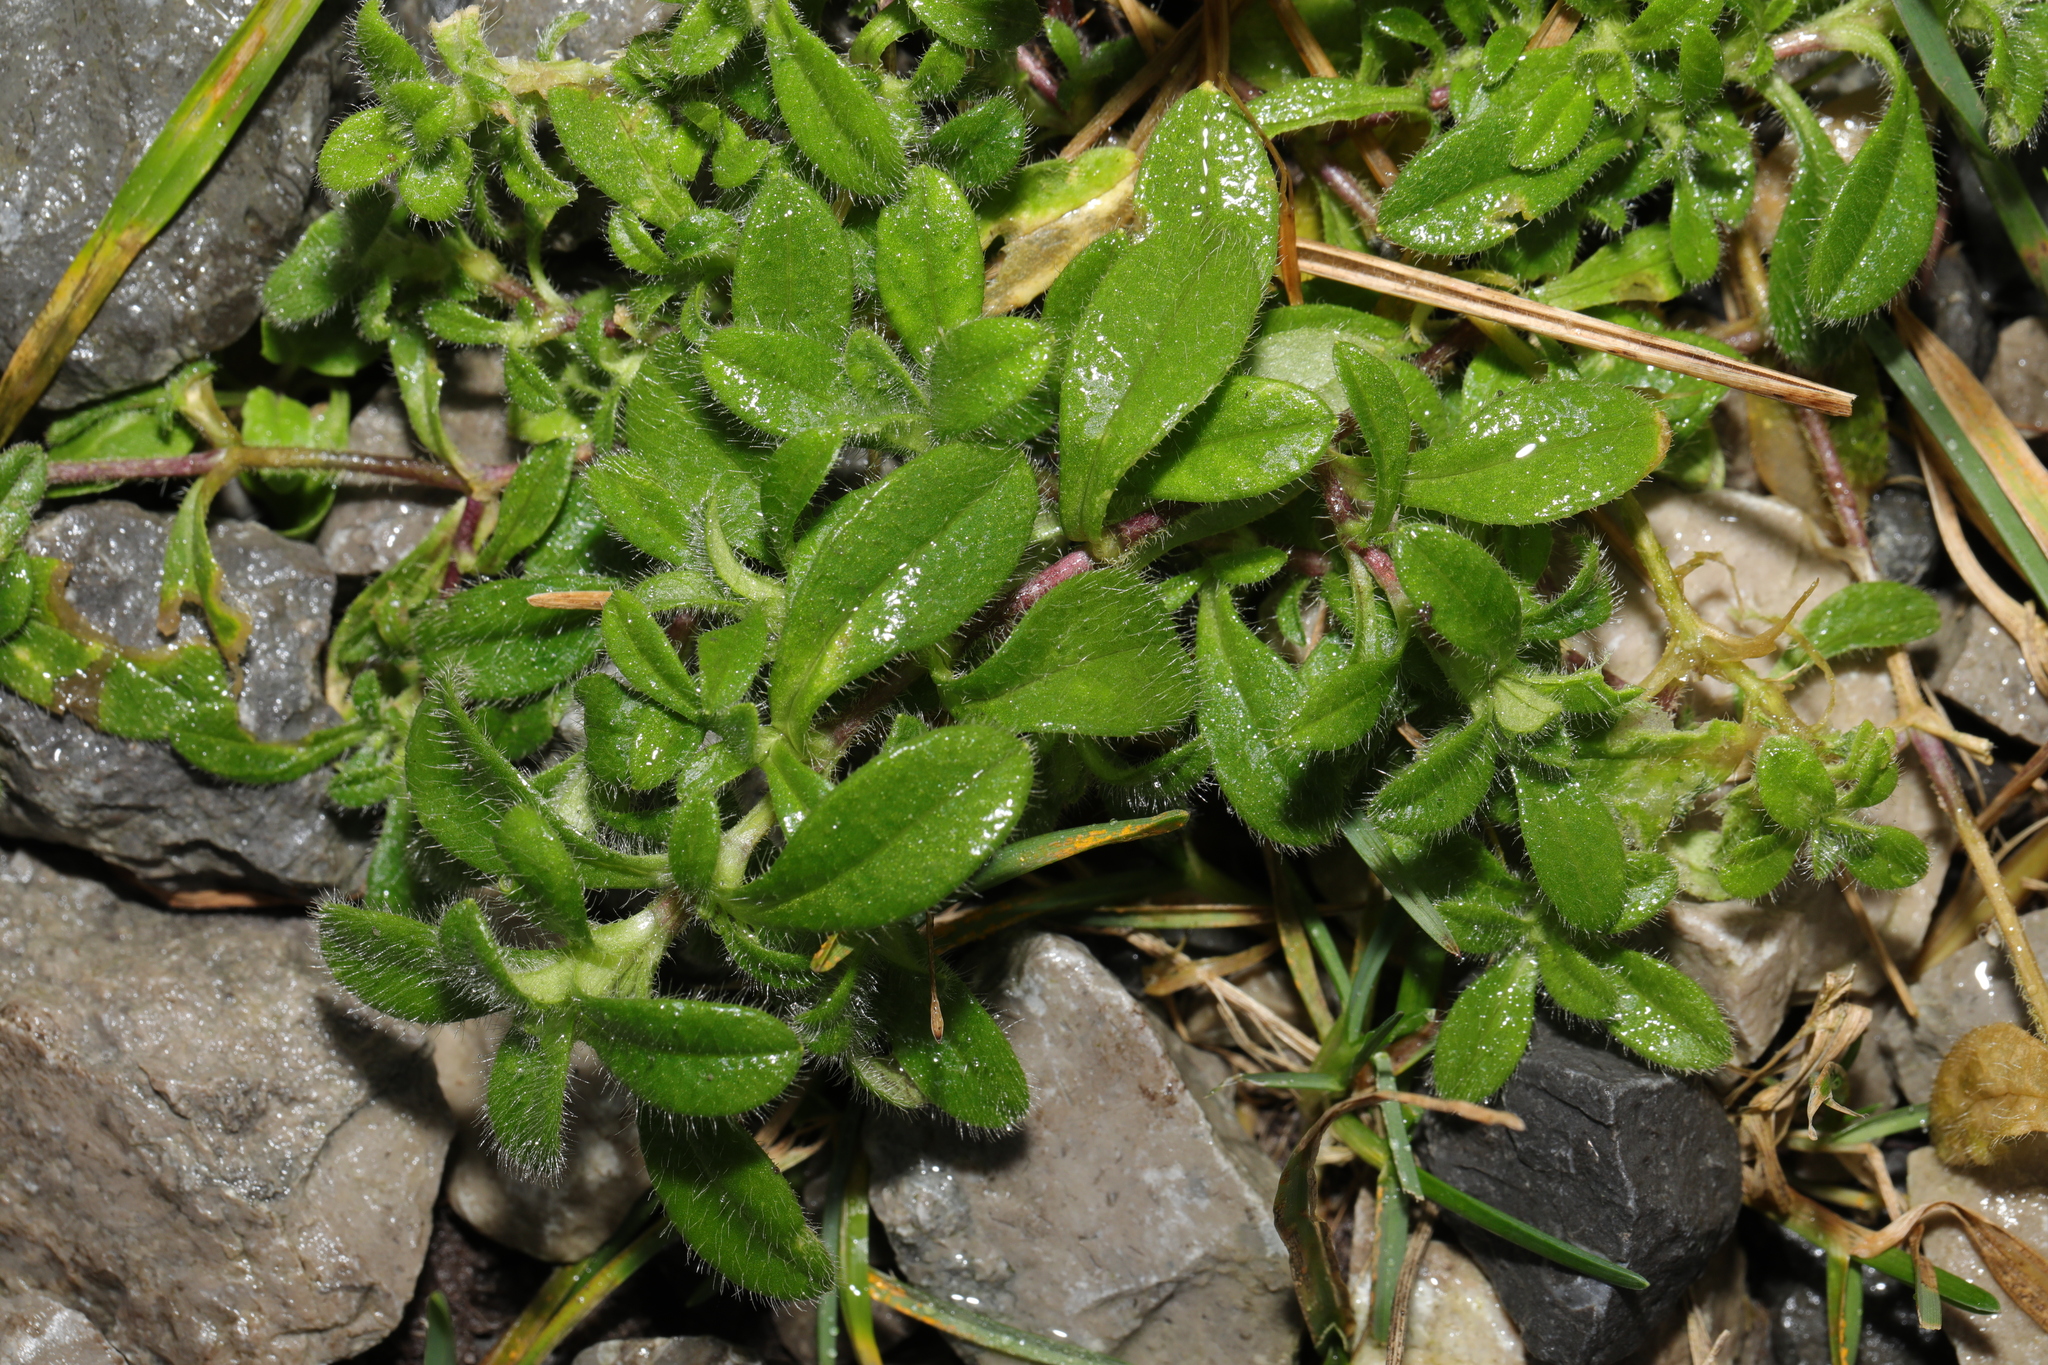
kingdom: Plantae
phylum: Tracheophyta
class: Magnoliopsida
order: Caryophyllales
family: Caryophyllaceae
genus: Cerastium
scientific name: Cerastium fontanum
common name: Common mouse-ear
